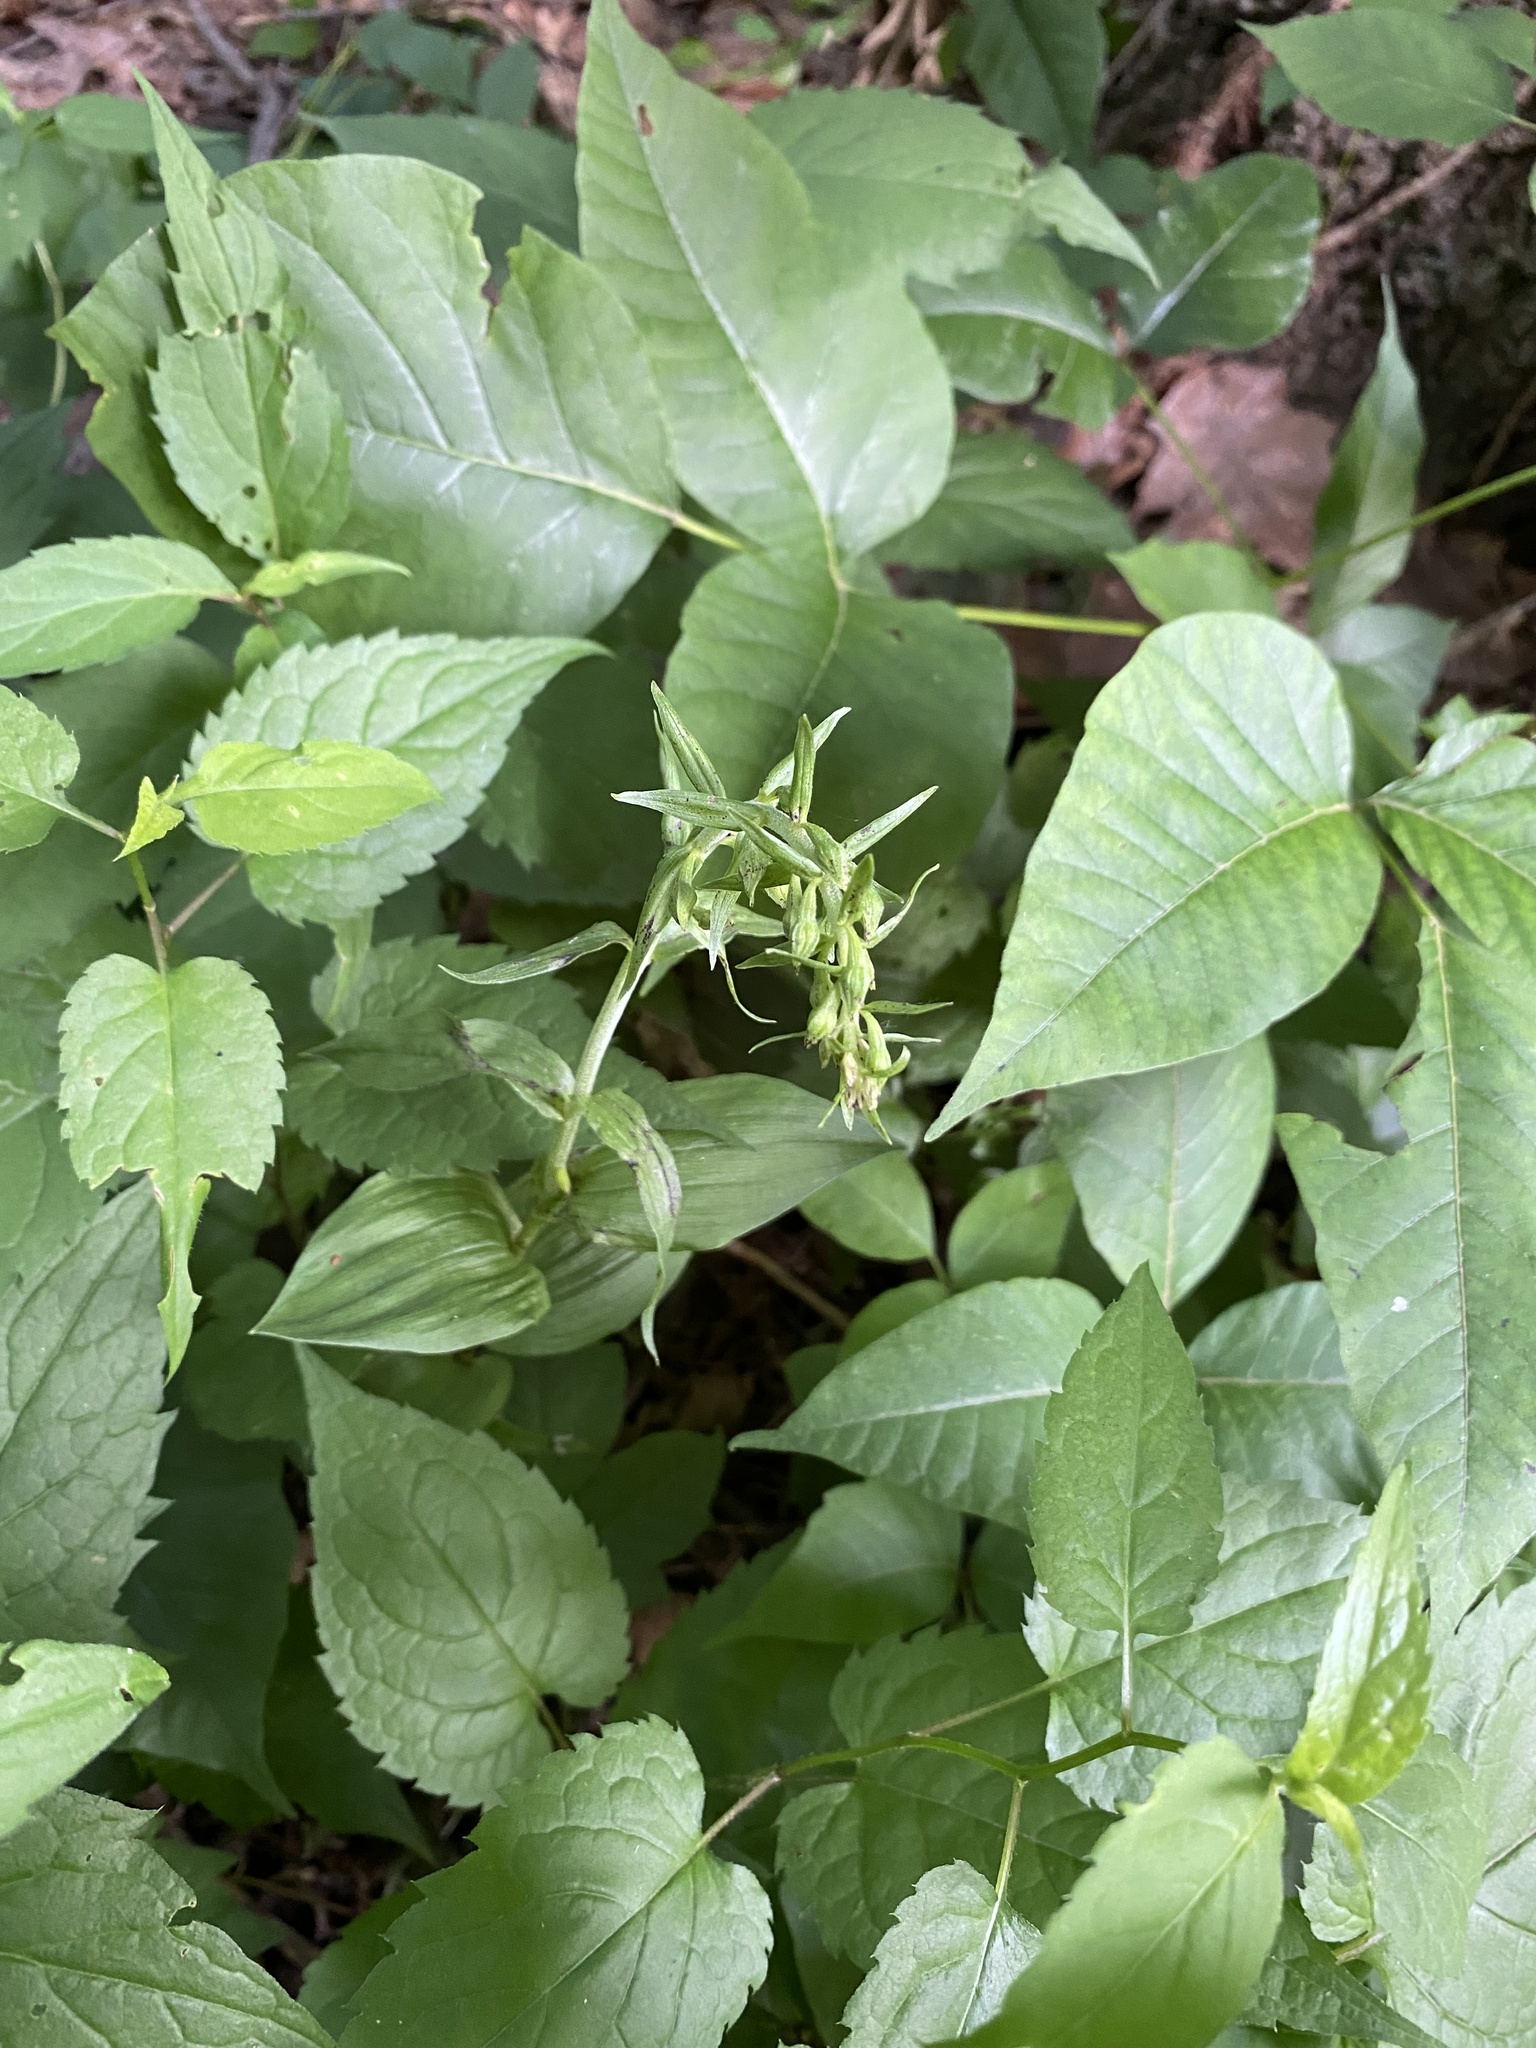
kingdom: Plantae
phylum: Tracheophyta
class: Liliopsida
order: Asparagales
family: Orchidaceae
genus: Epipactis
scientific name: Epipactis helleborine
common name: Broad-leaved helleborine
